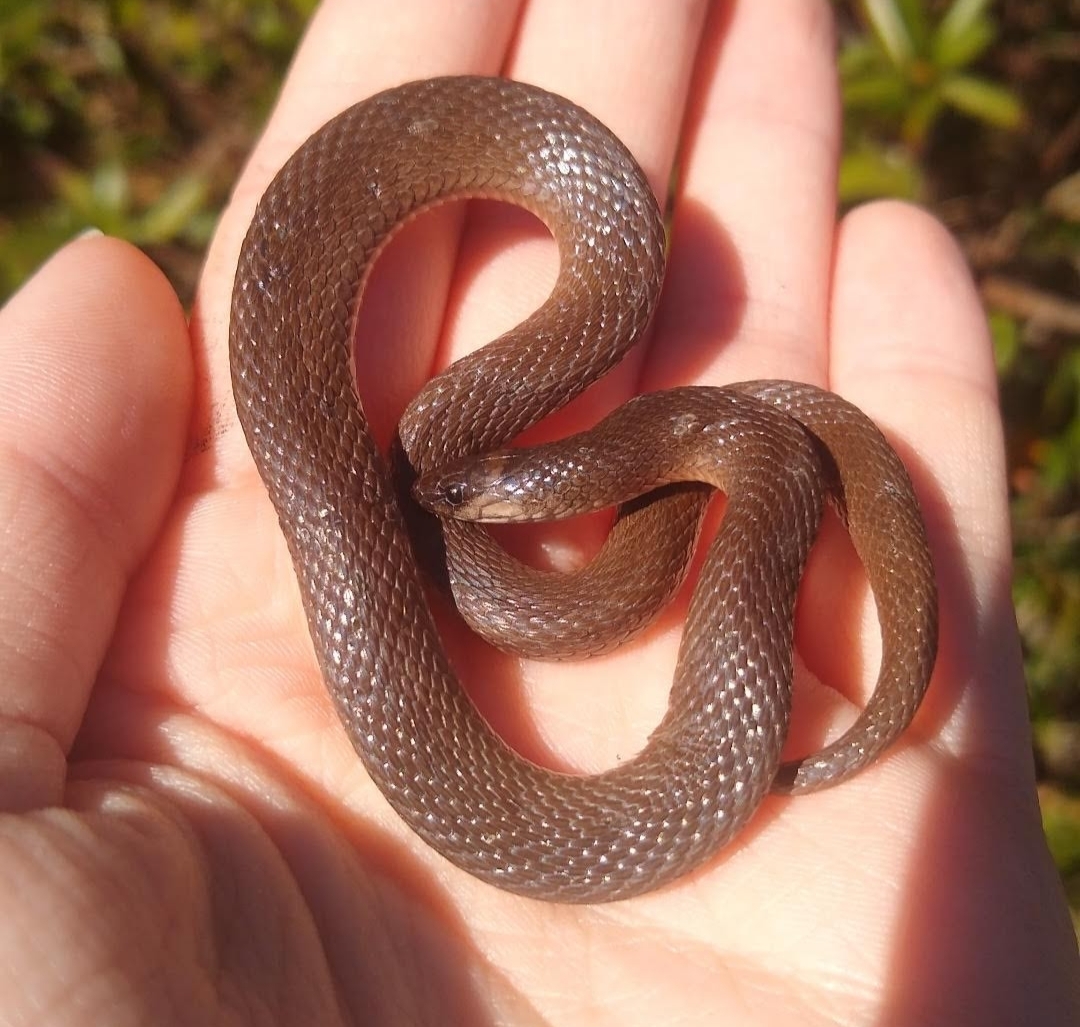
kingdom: Animalia
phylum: Chordata
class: Squamata
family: Colubridae
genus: Haldea
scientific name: Haldea striatula
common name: Rough earth snake
